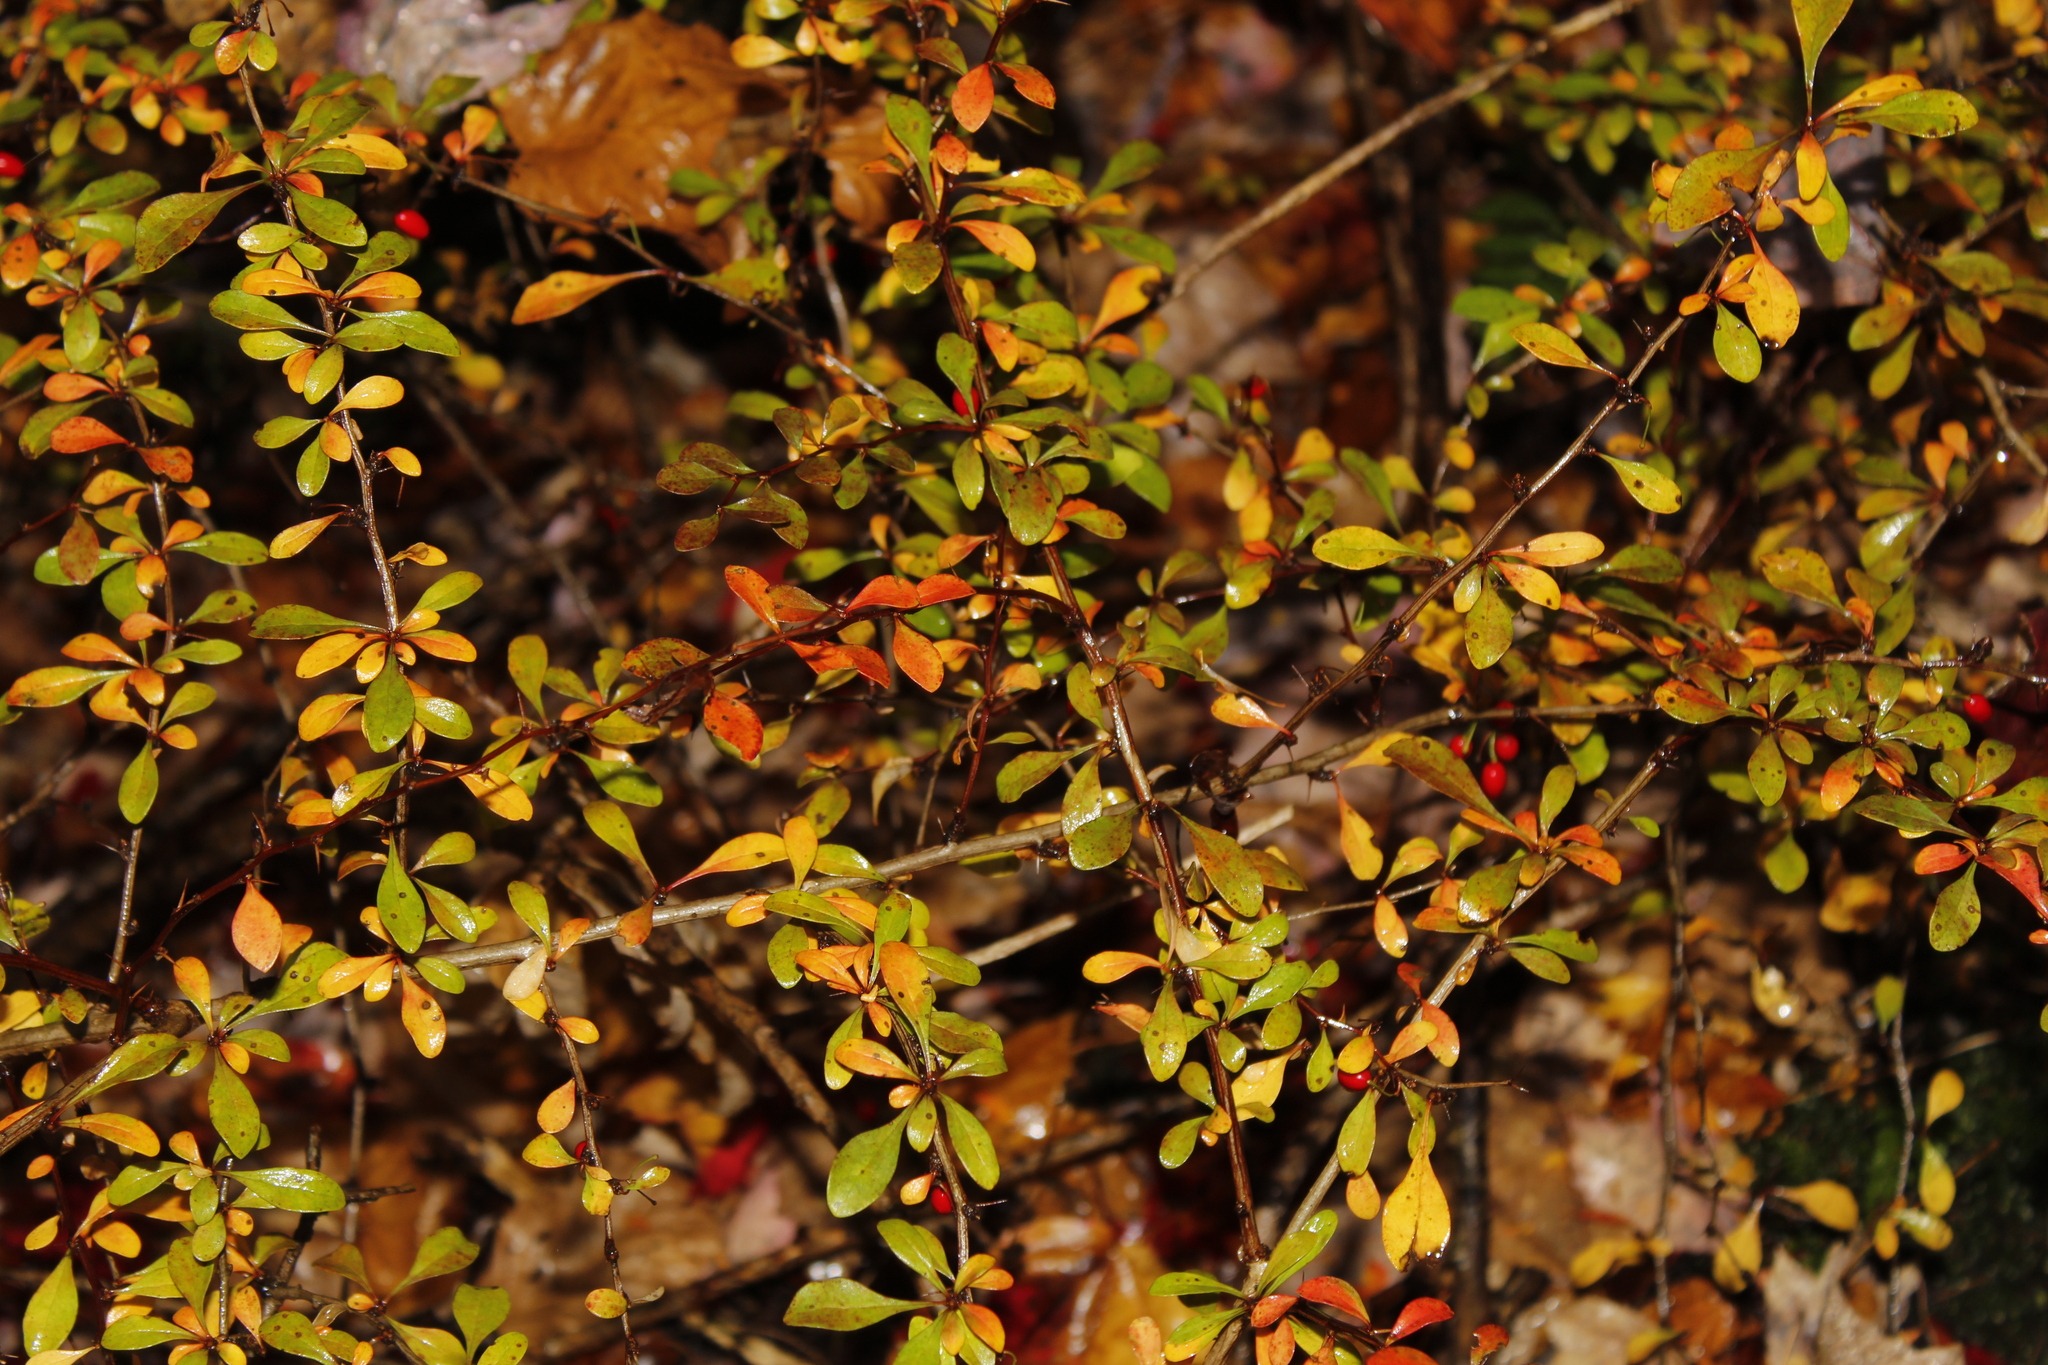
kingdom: Plantae
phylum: Tracheophyta
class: Magnoliopsida
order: Ranunculales
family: Berberidaceae
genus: Berberis
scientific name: Berberis thunbergii
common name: Japanese barberry
